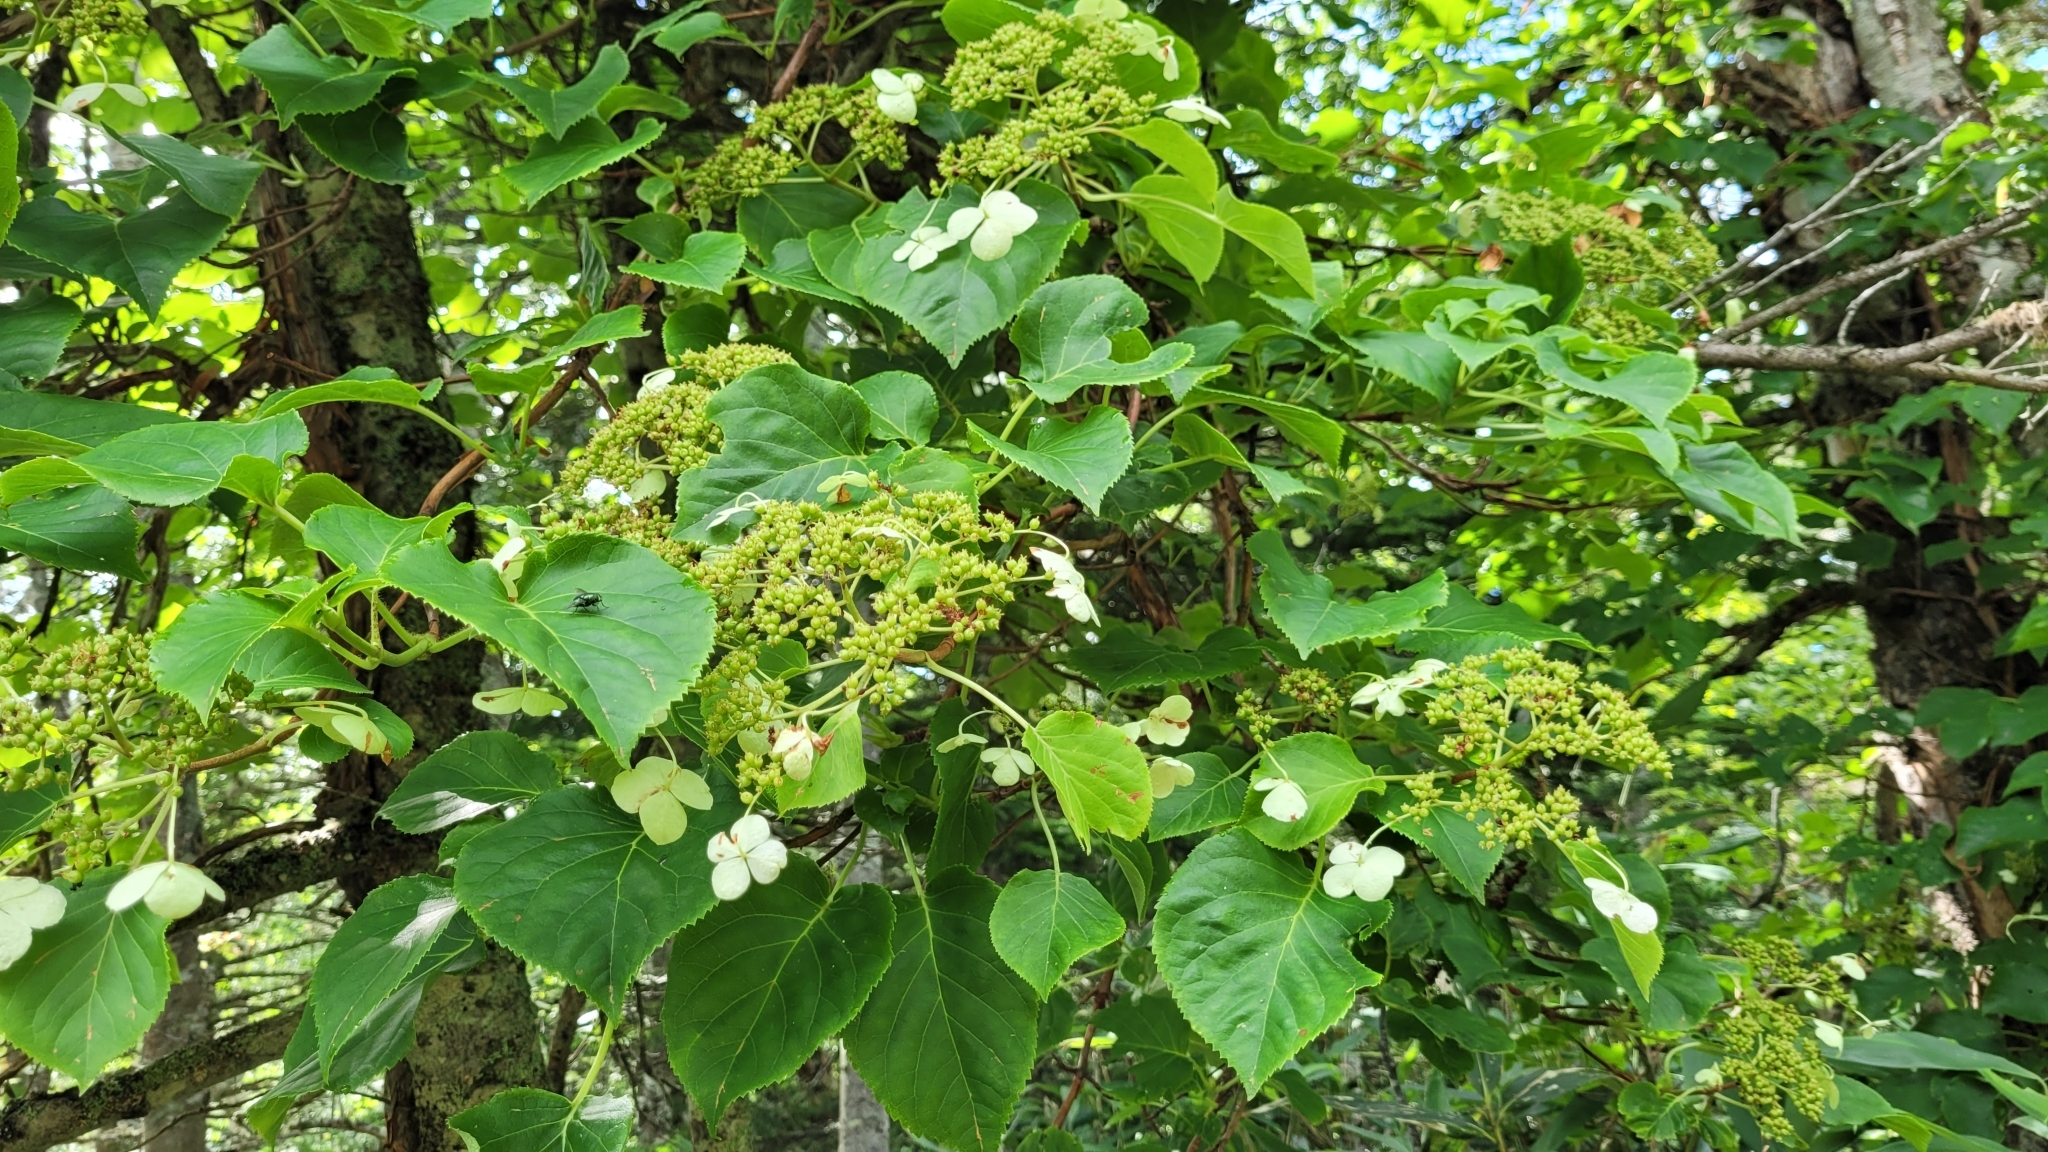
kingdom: Plantae
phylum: Tracheophyta
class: Magnoliopsida
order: Cornales
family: Hydrangeaceae
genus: Hydrangea
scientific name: Hydrangea petiolaris
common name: Japanese climbing hydrangea
